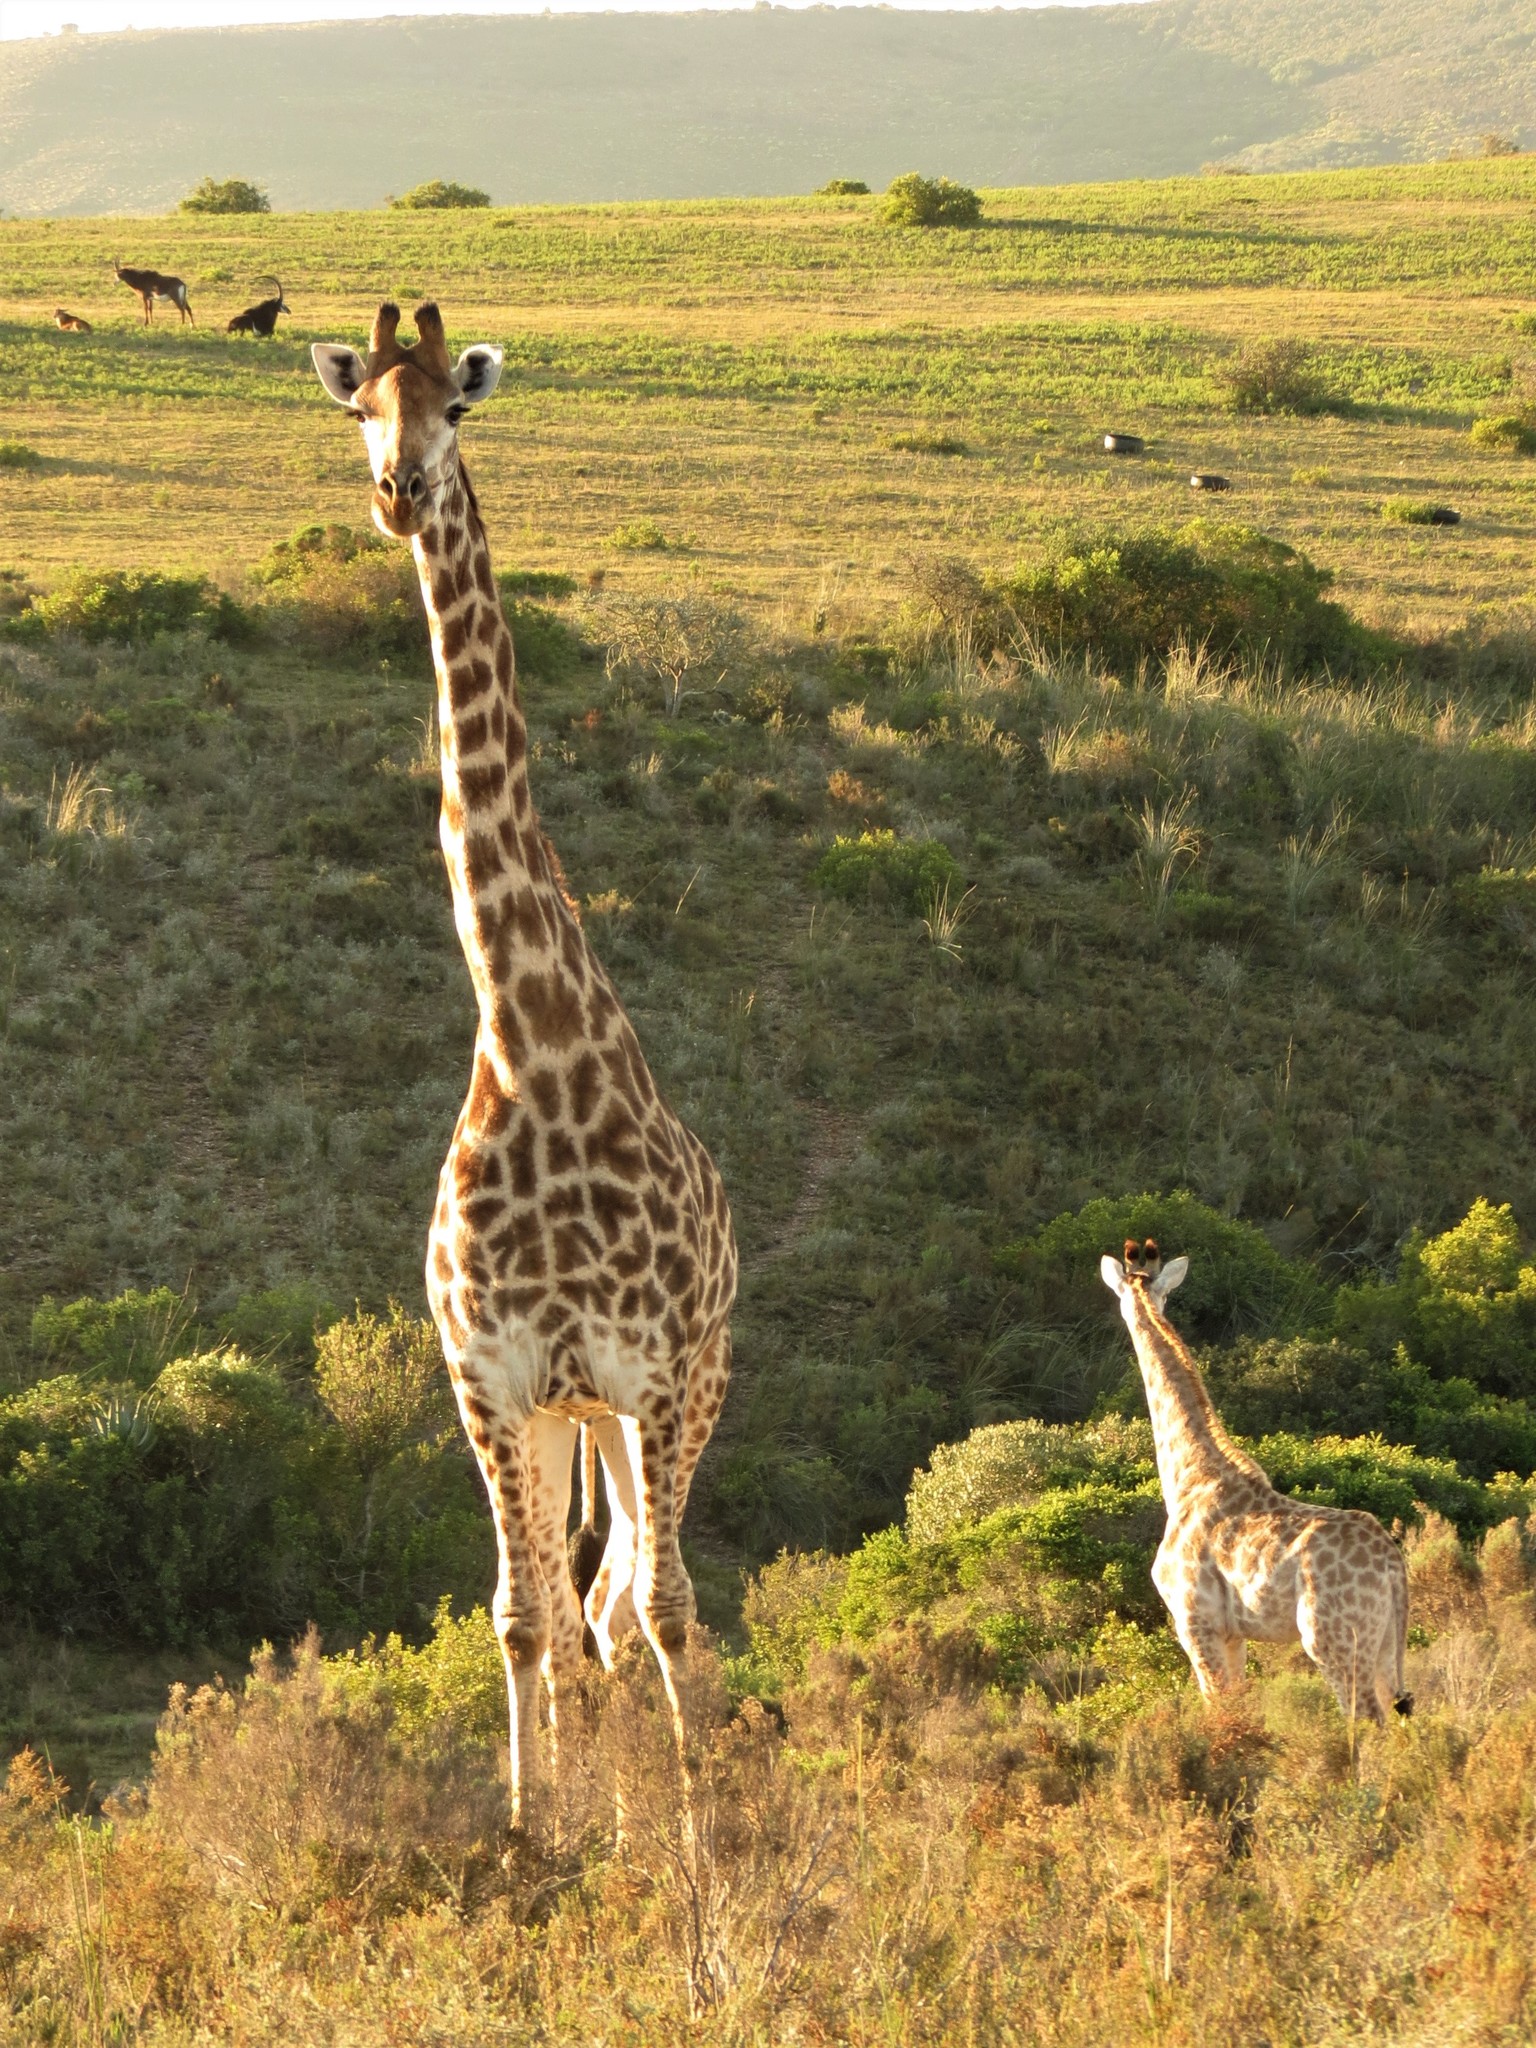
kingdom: Animalia
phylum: Chordata
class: Mammalia
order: Artiodactyla
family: Giraffidae
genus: Giraffa
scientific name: Giraffa giraffa
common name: Southern giraffe
